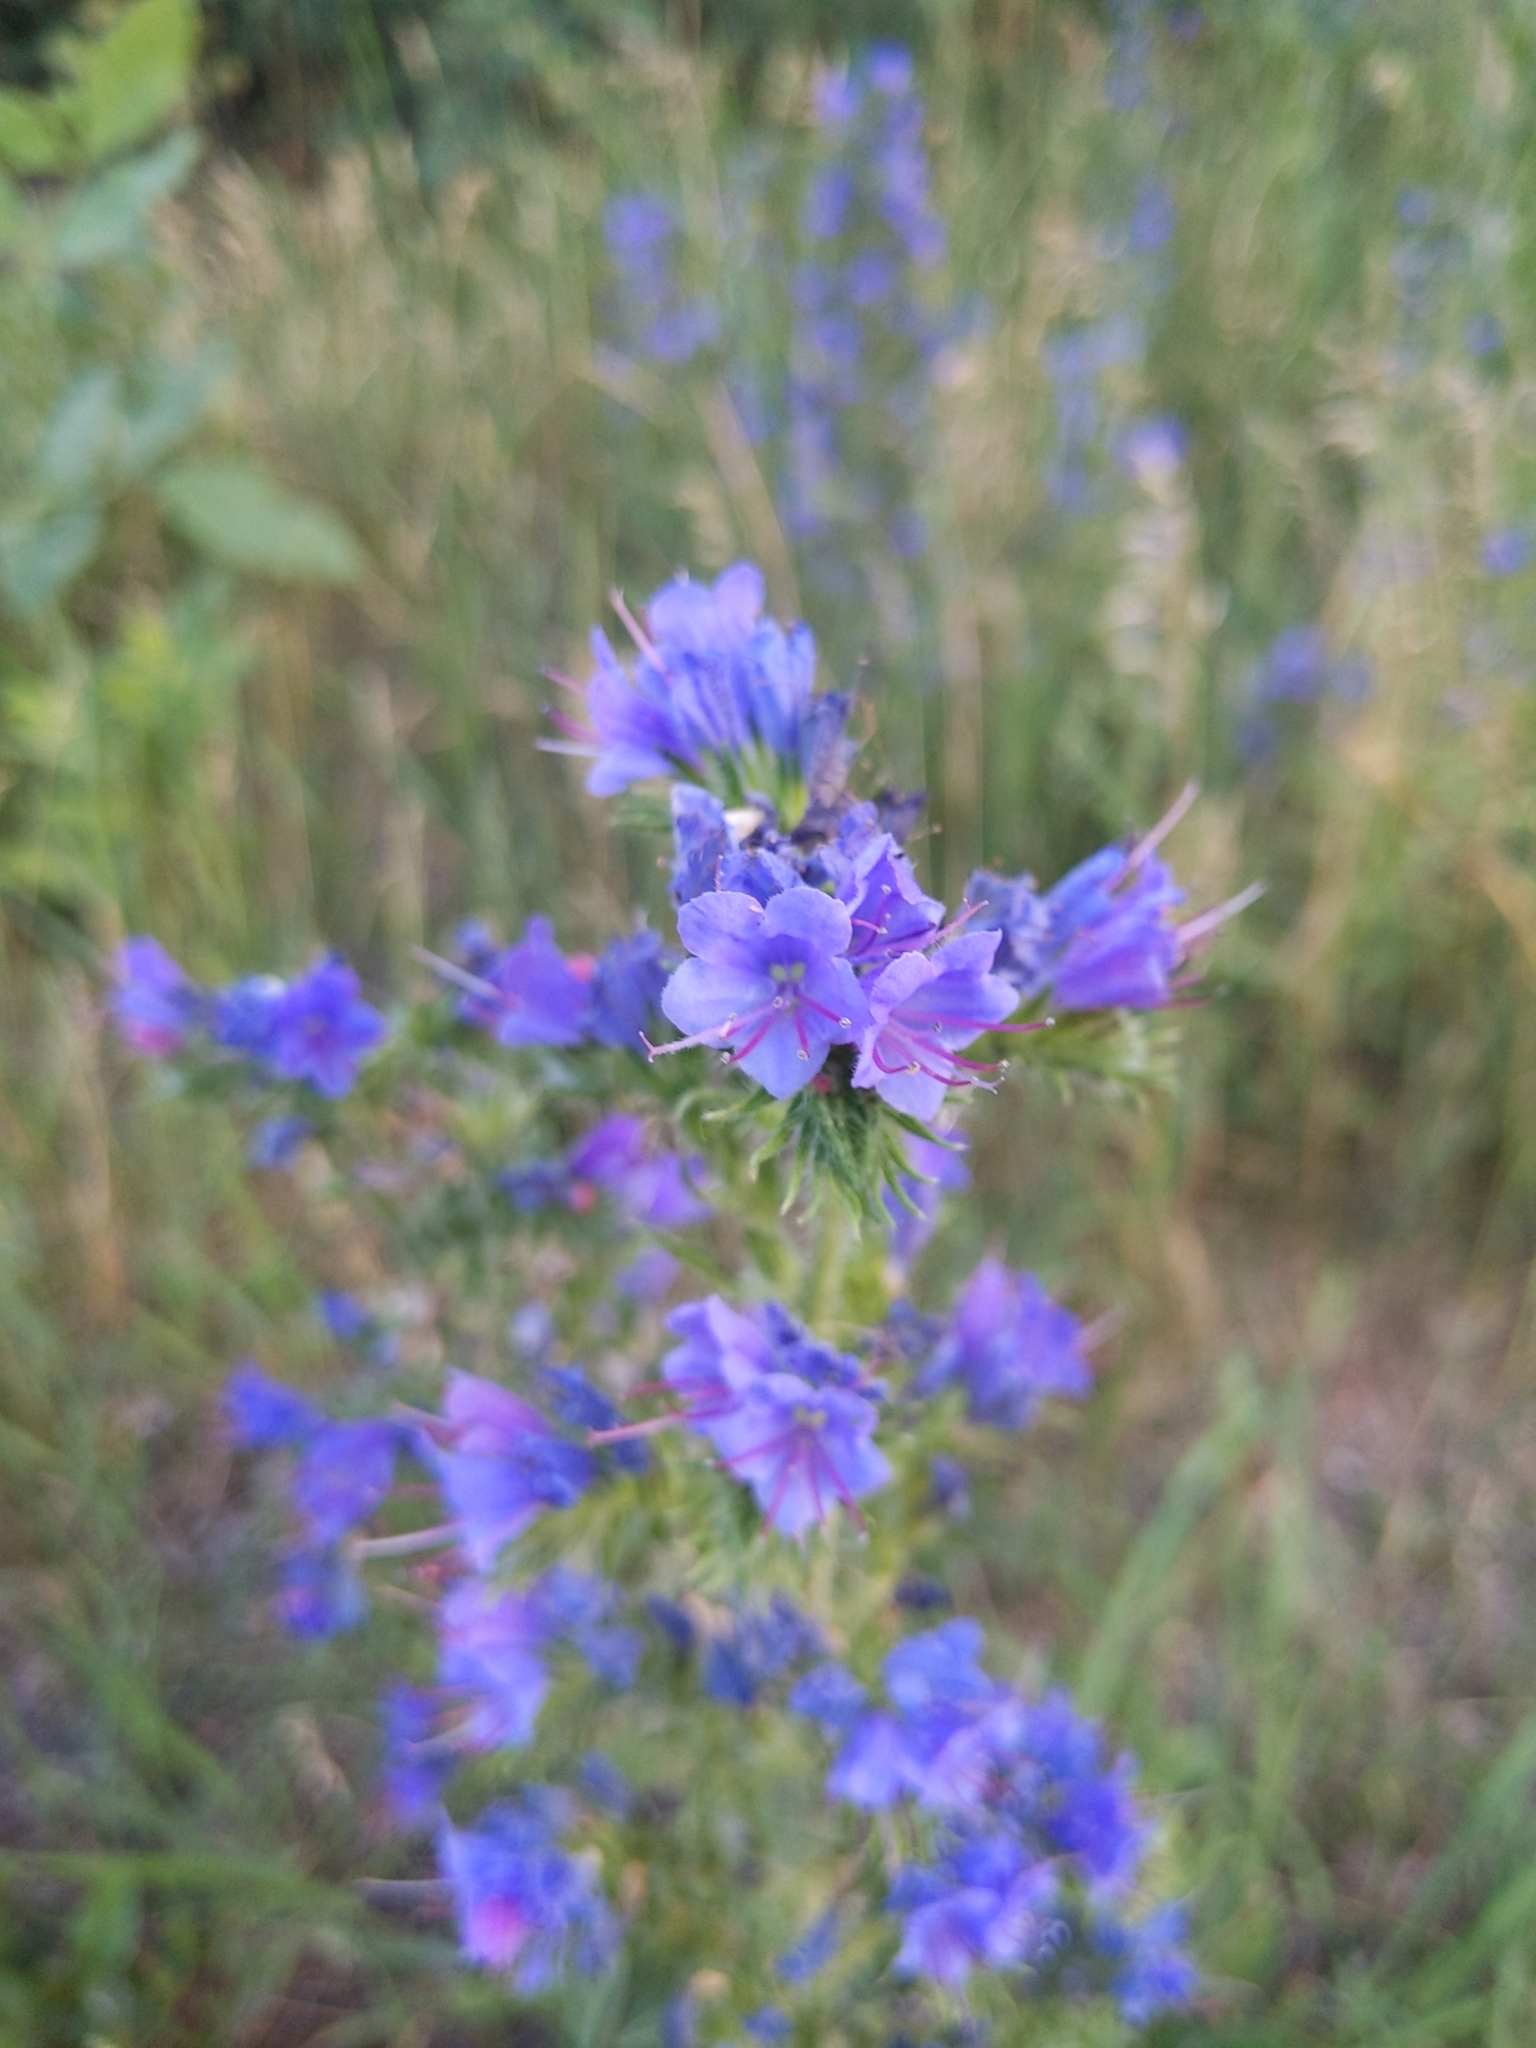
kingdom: Plantae
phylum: Tracheophyta
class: Magnoliopsida
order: Boraginales
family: Boraginaceae
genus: Echium
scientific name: Echium vulgare
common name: Common viper's bugloss
